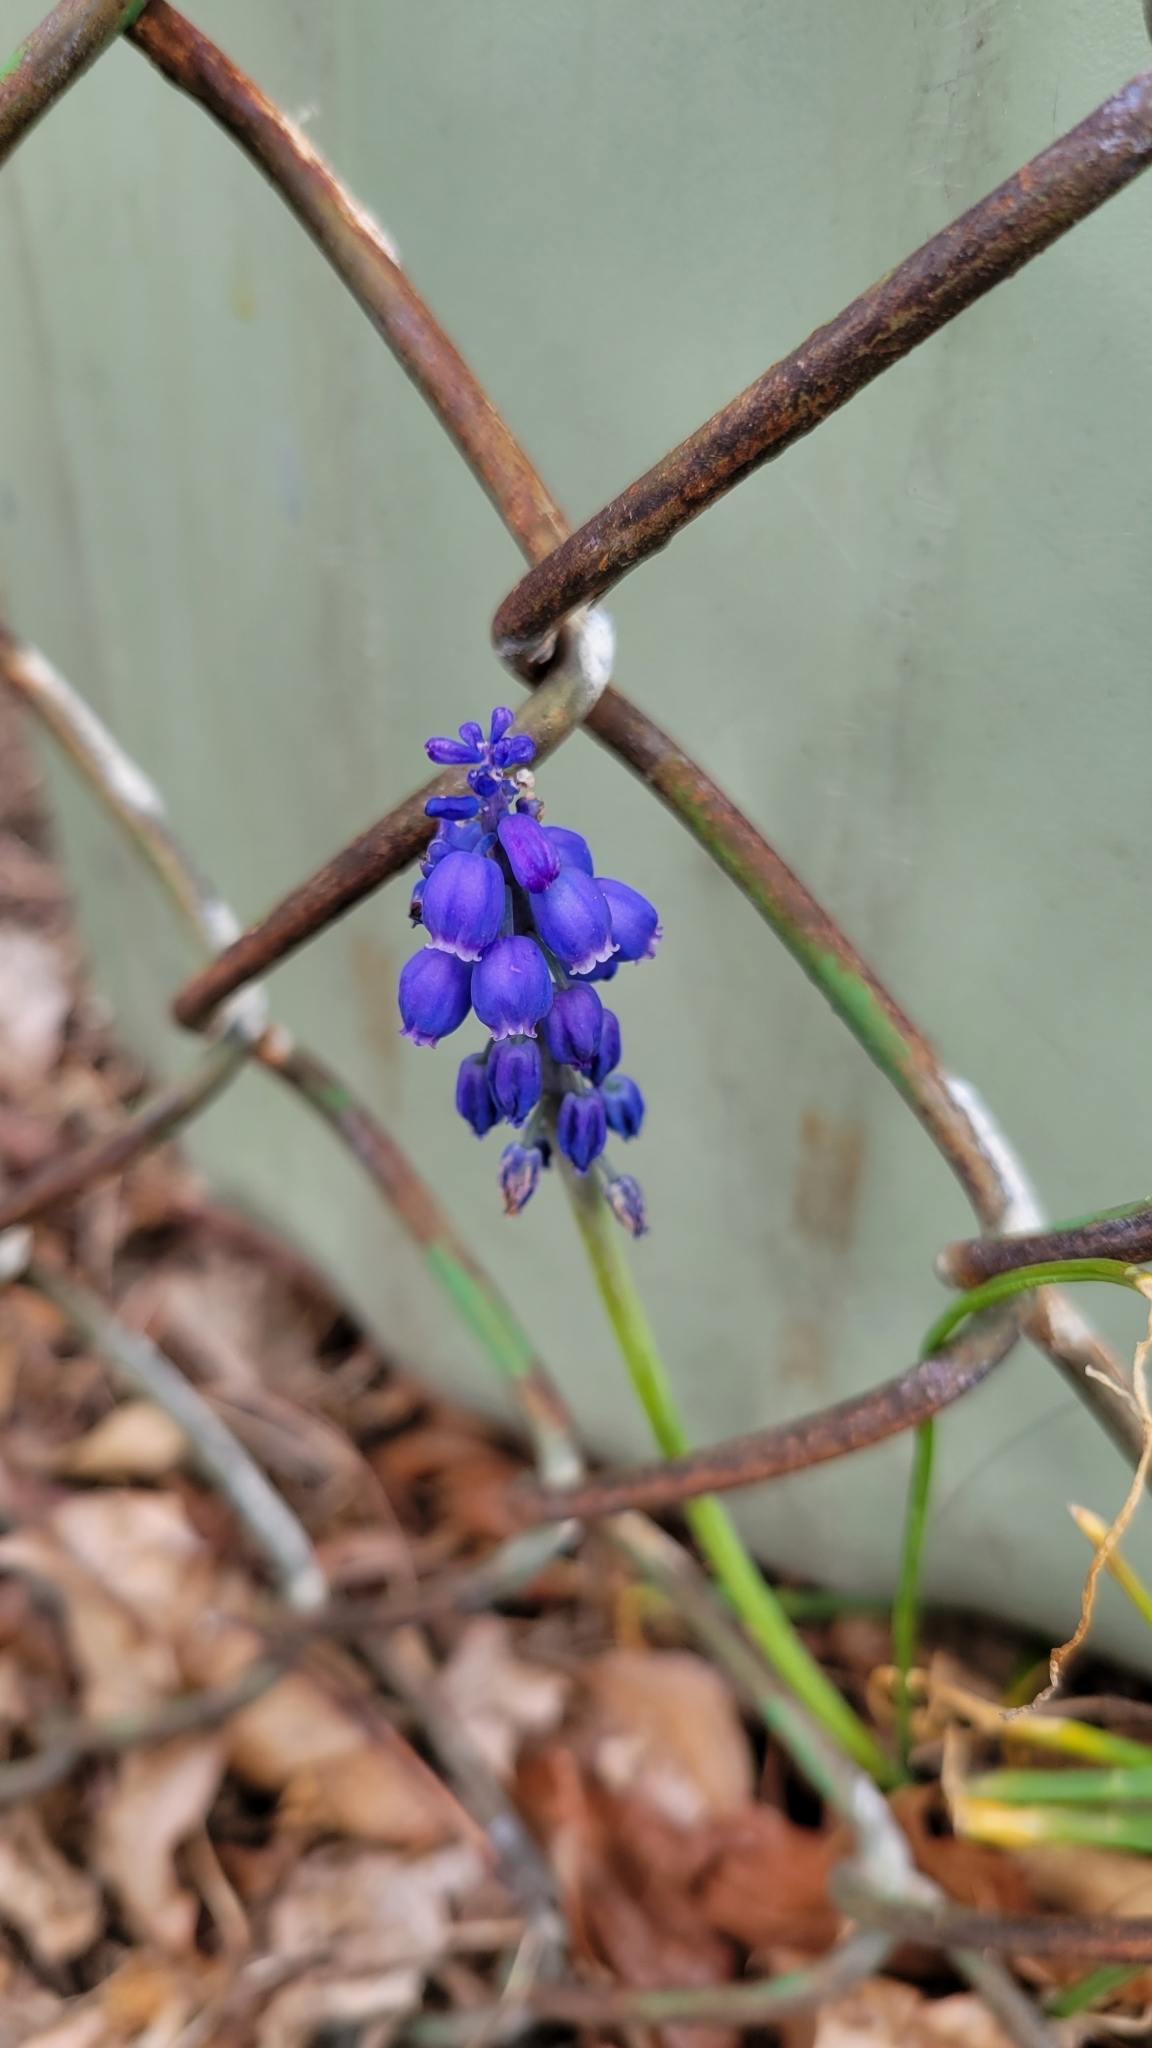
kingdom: Plantae
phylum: Tracheophyta
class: Liliopsida
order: Asparagales
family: Asparagaceae
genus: Muscari
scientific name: Muscari botryoides
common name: Compact grape-hyacinth
